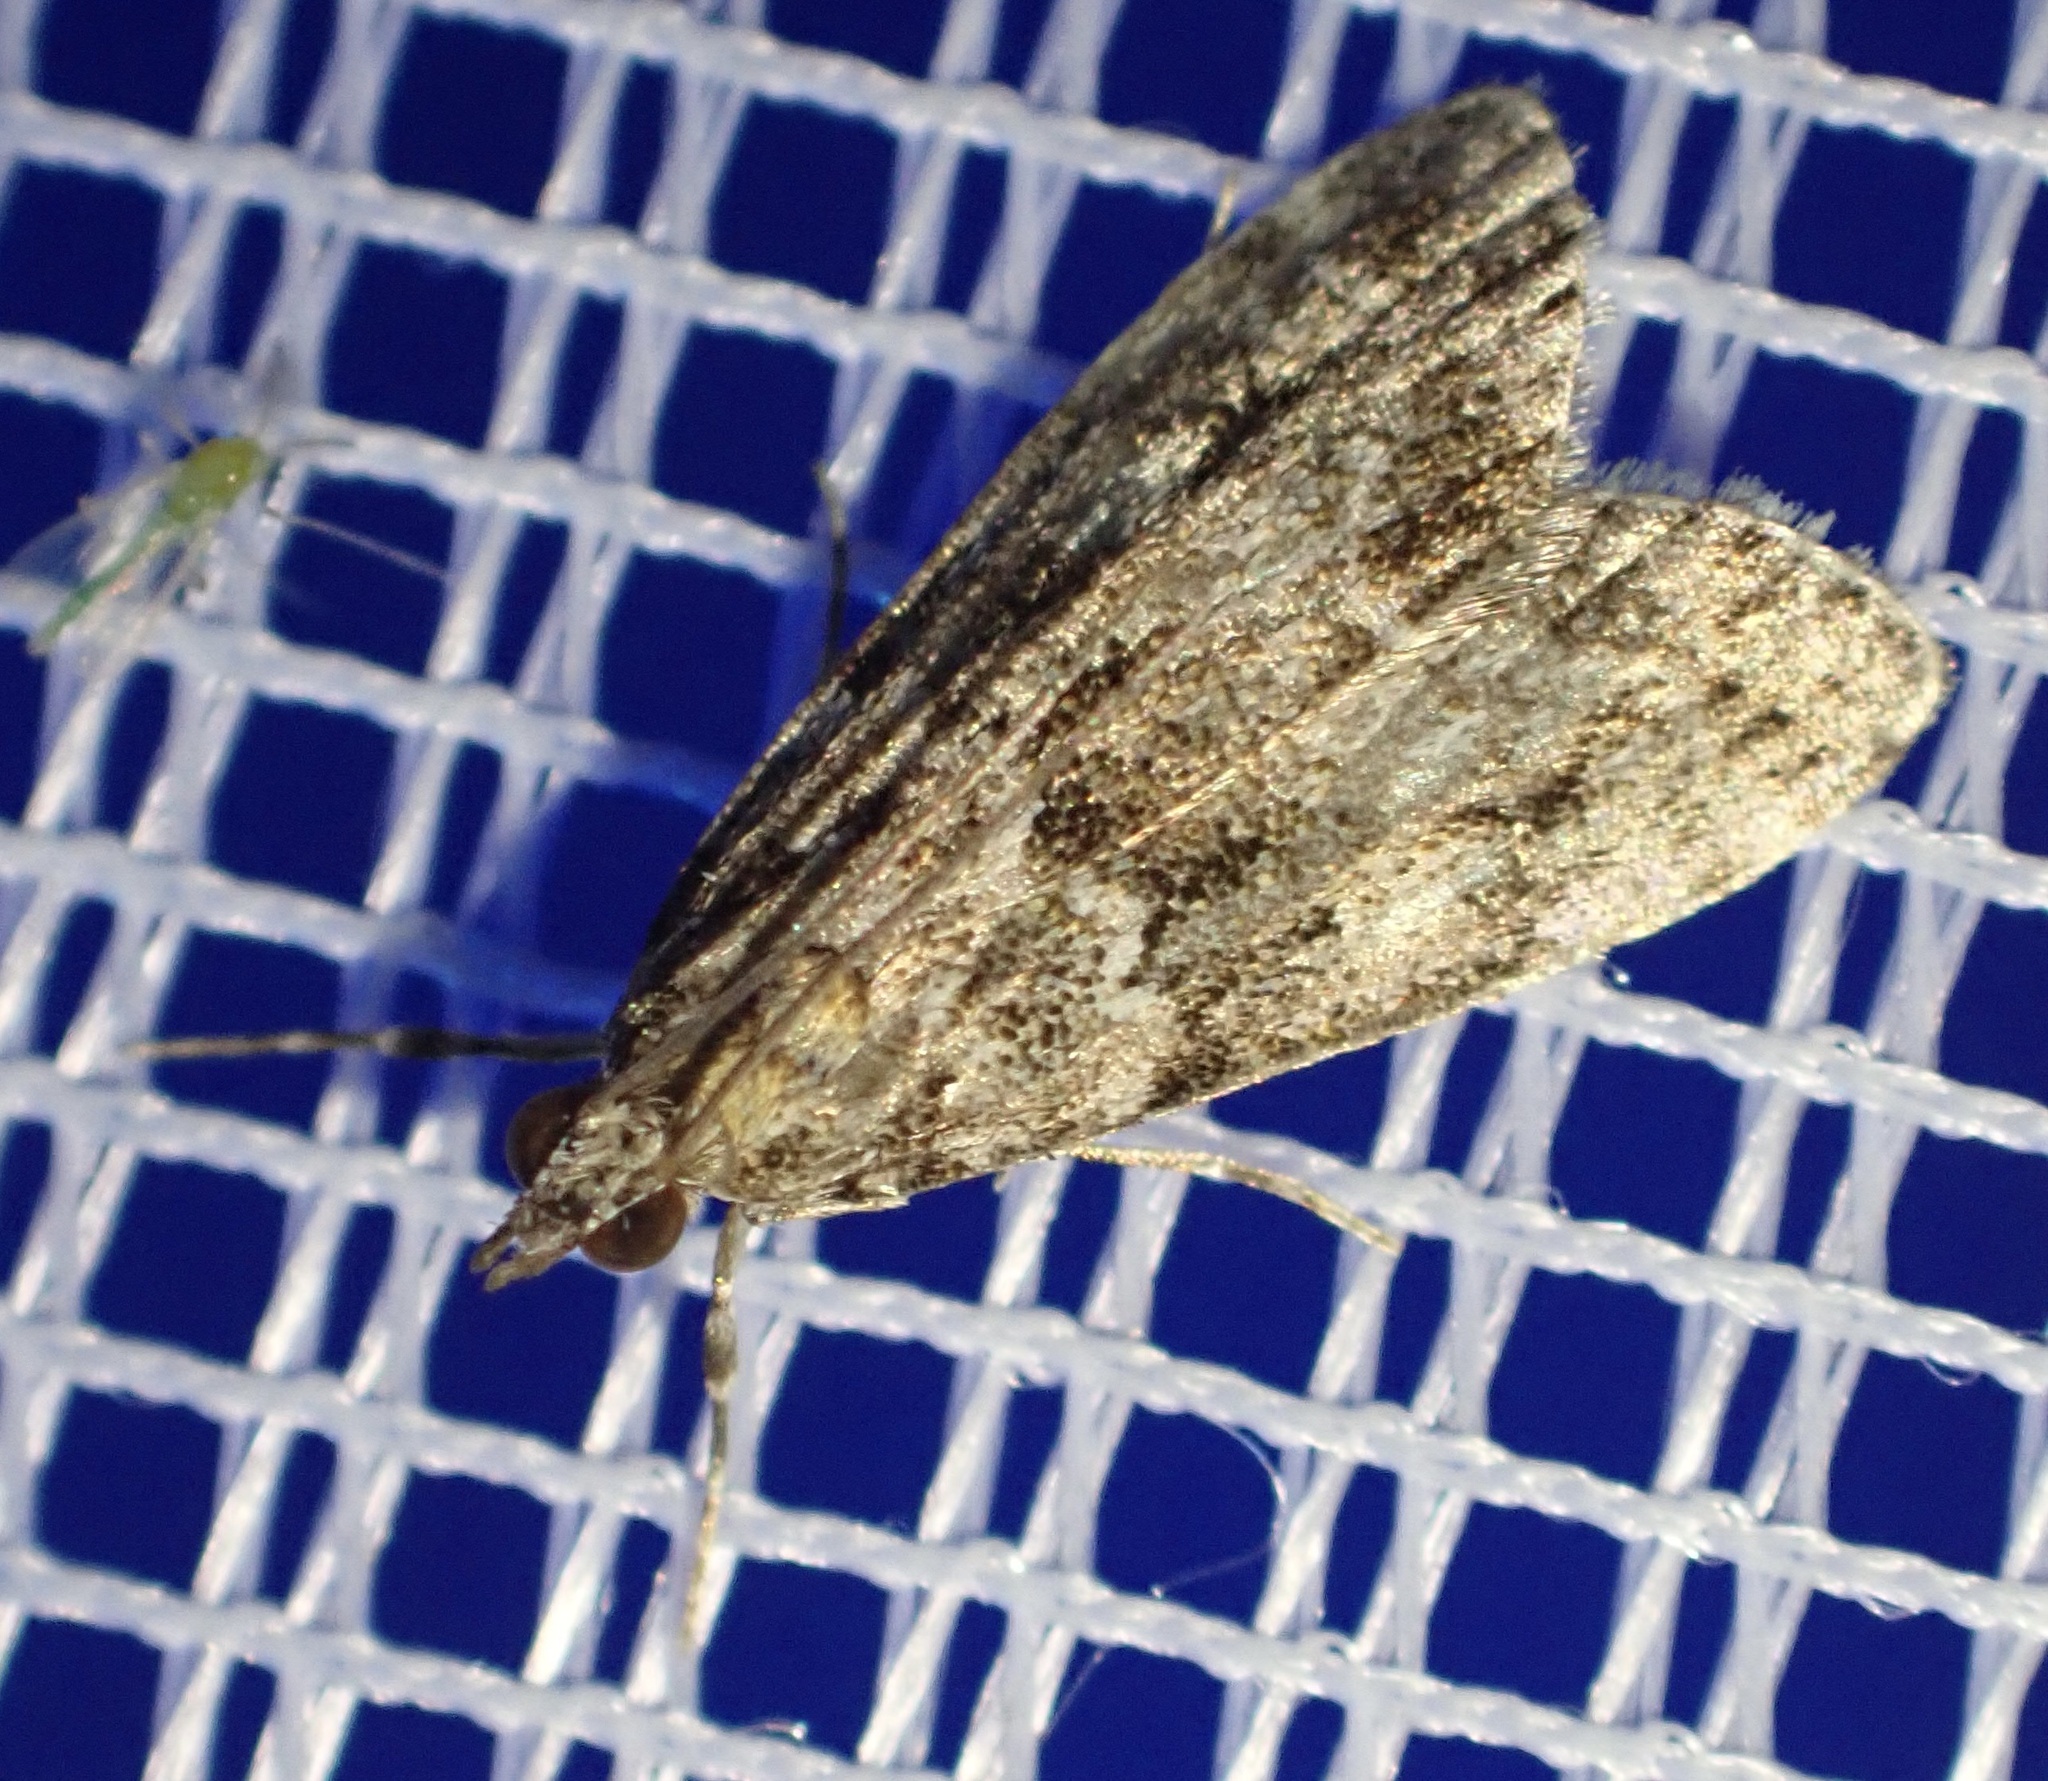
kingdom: Animalia
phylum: Arthropoda
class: Insecta
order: Lepidoptera
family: Crambidae
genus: Eudonia
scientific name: Eudonia mercurella
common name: Small grey
